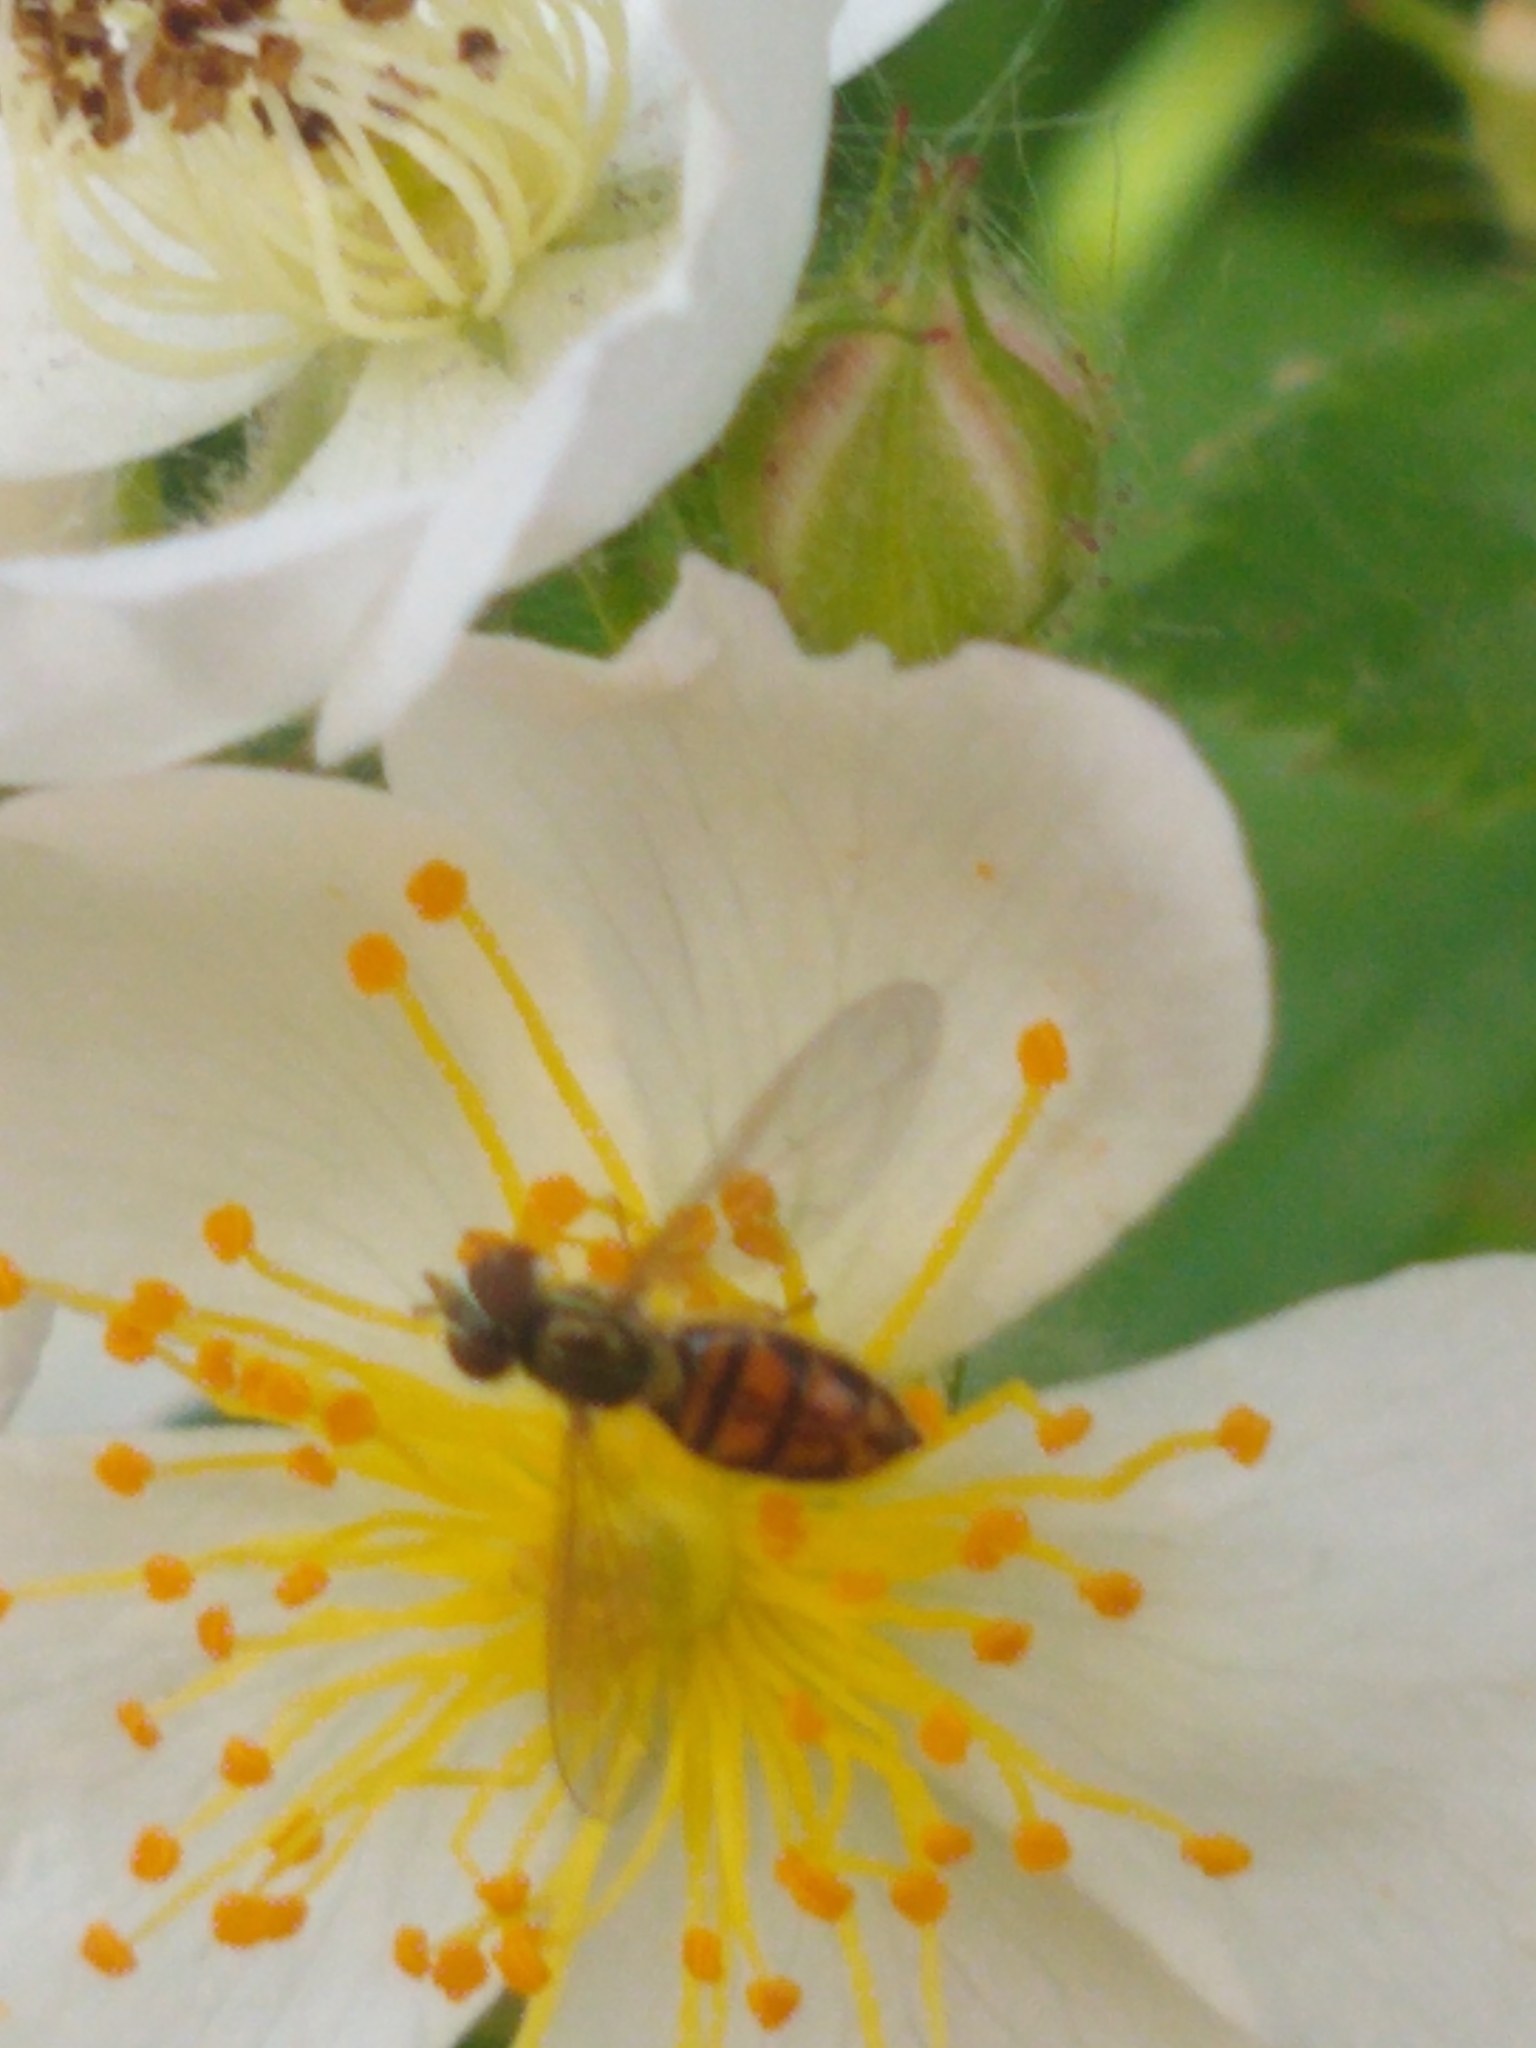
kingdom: Animalia
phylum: Arthropoda
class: Insecta
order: Diptera
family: Syrphidae
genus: Toxomerus
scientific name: Toxomerus marginatus
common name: Syrphid fly
